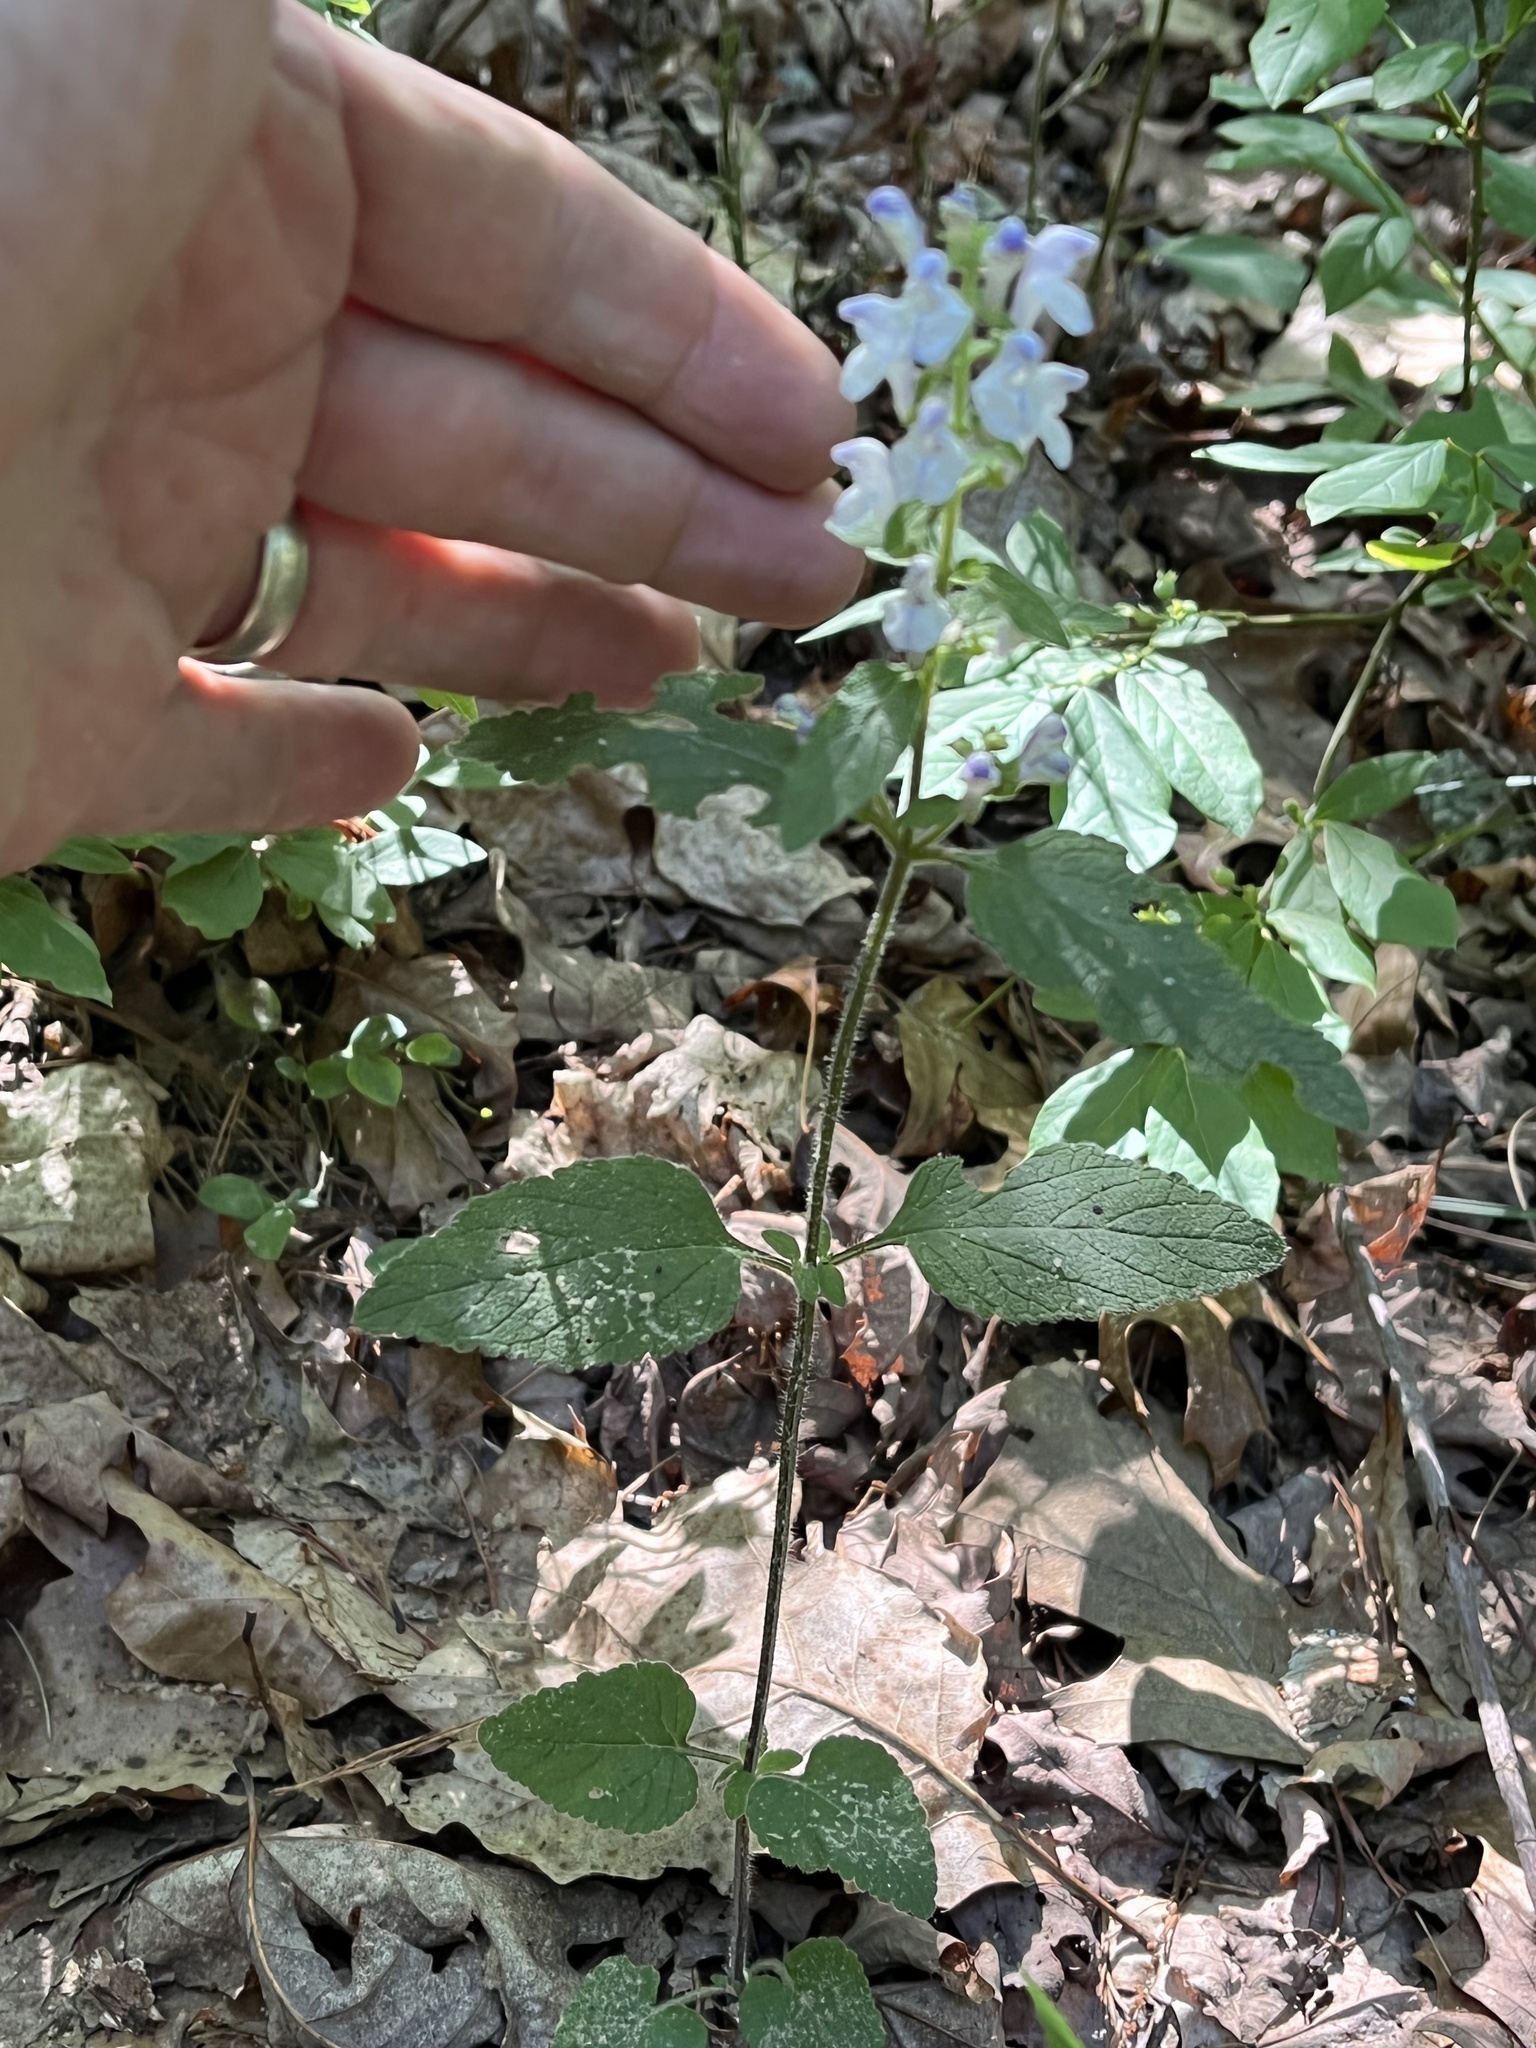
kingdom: Plantae
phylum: Tracheophyta
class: Magnoliopsida
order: Lamiales
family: Lamiaceae
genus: Scutellaria
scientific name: Scutellaria elliptica
